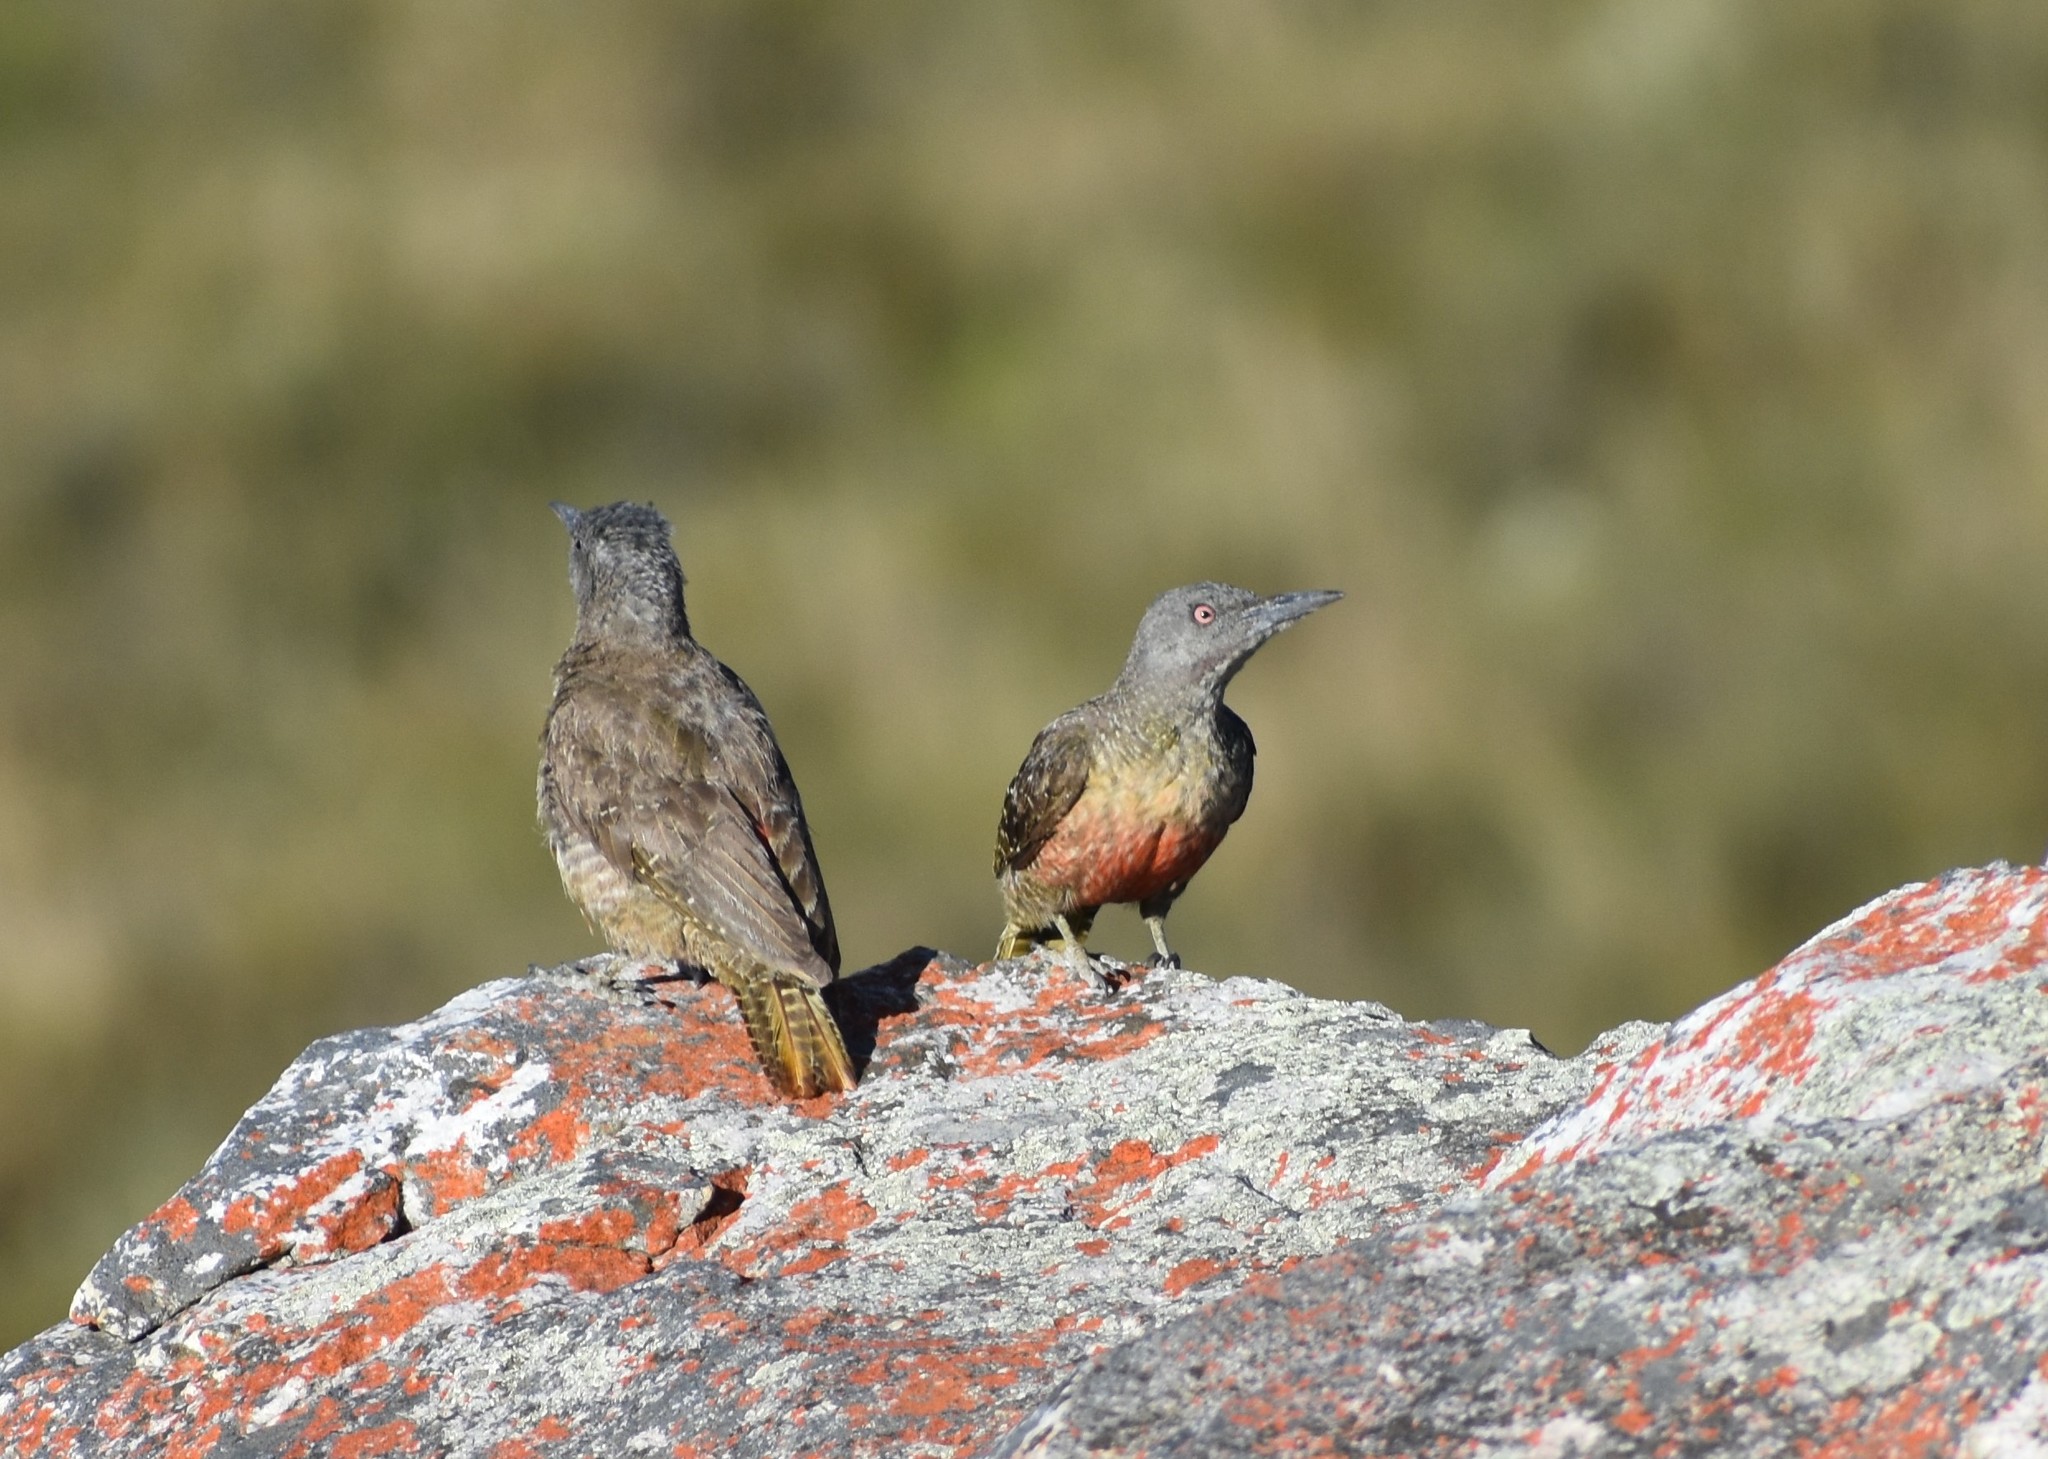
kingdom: Animalia
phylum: Chordata
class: Aves
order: Piciformes
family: Picidae
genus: Geocolaptes
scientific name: Geocolaptes olivaceus
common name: Ground woodpecker
